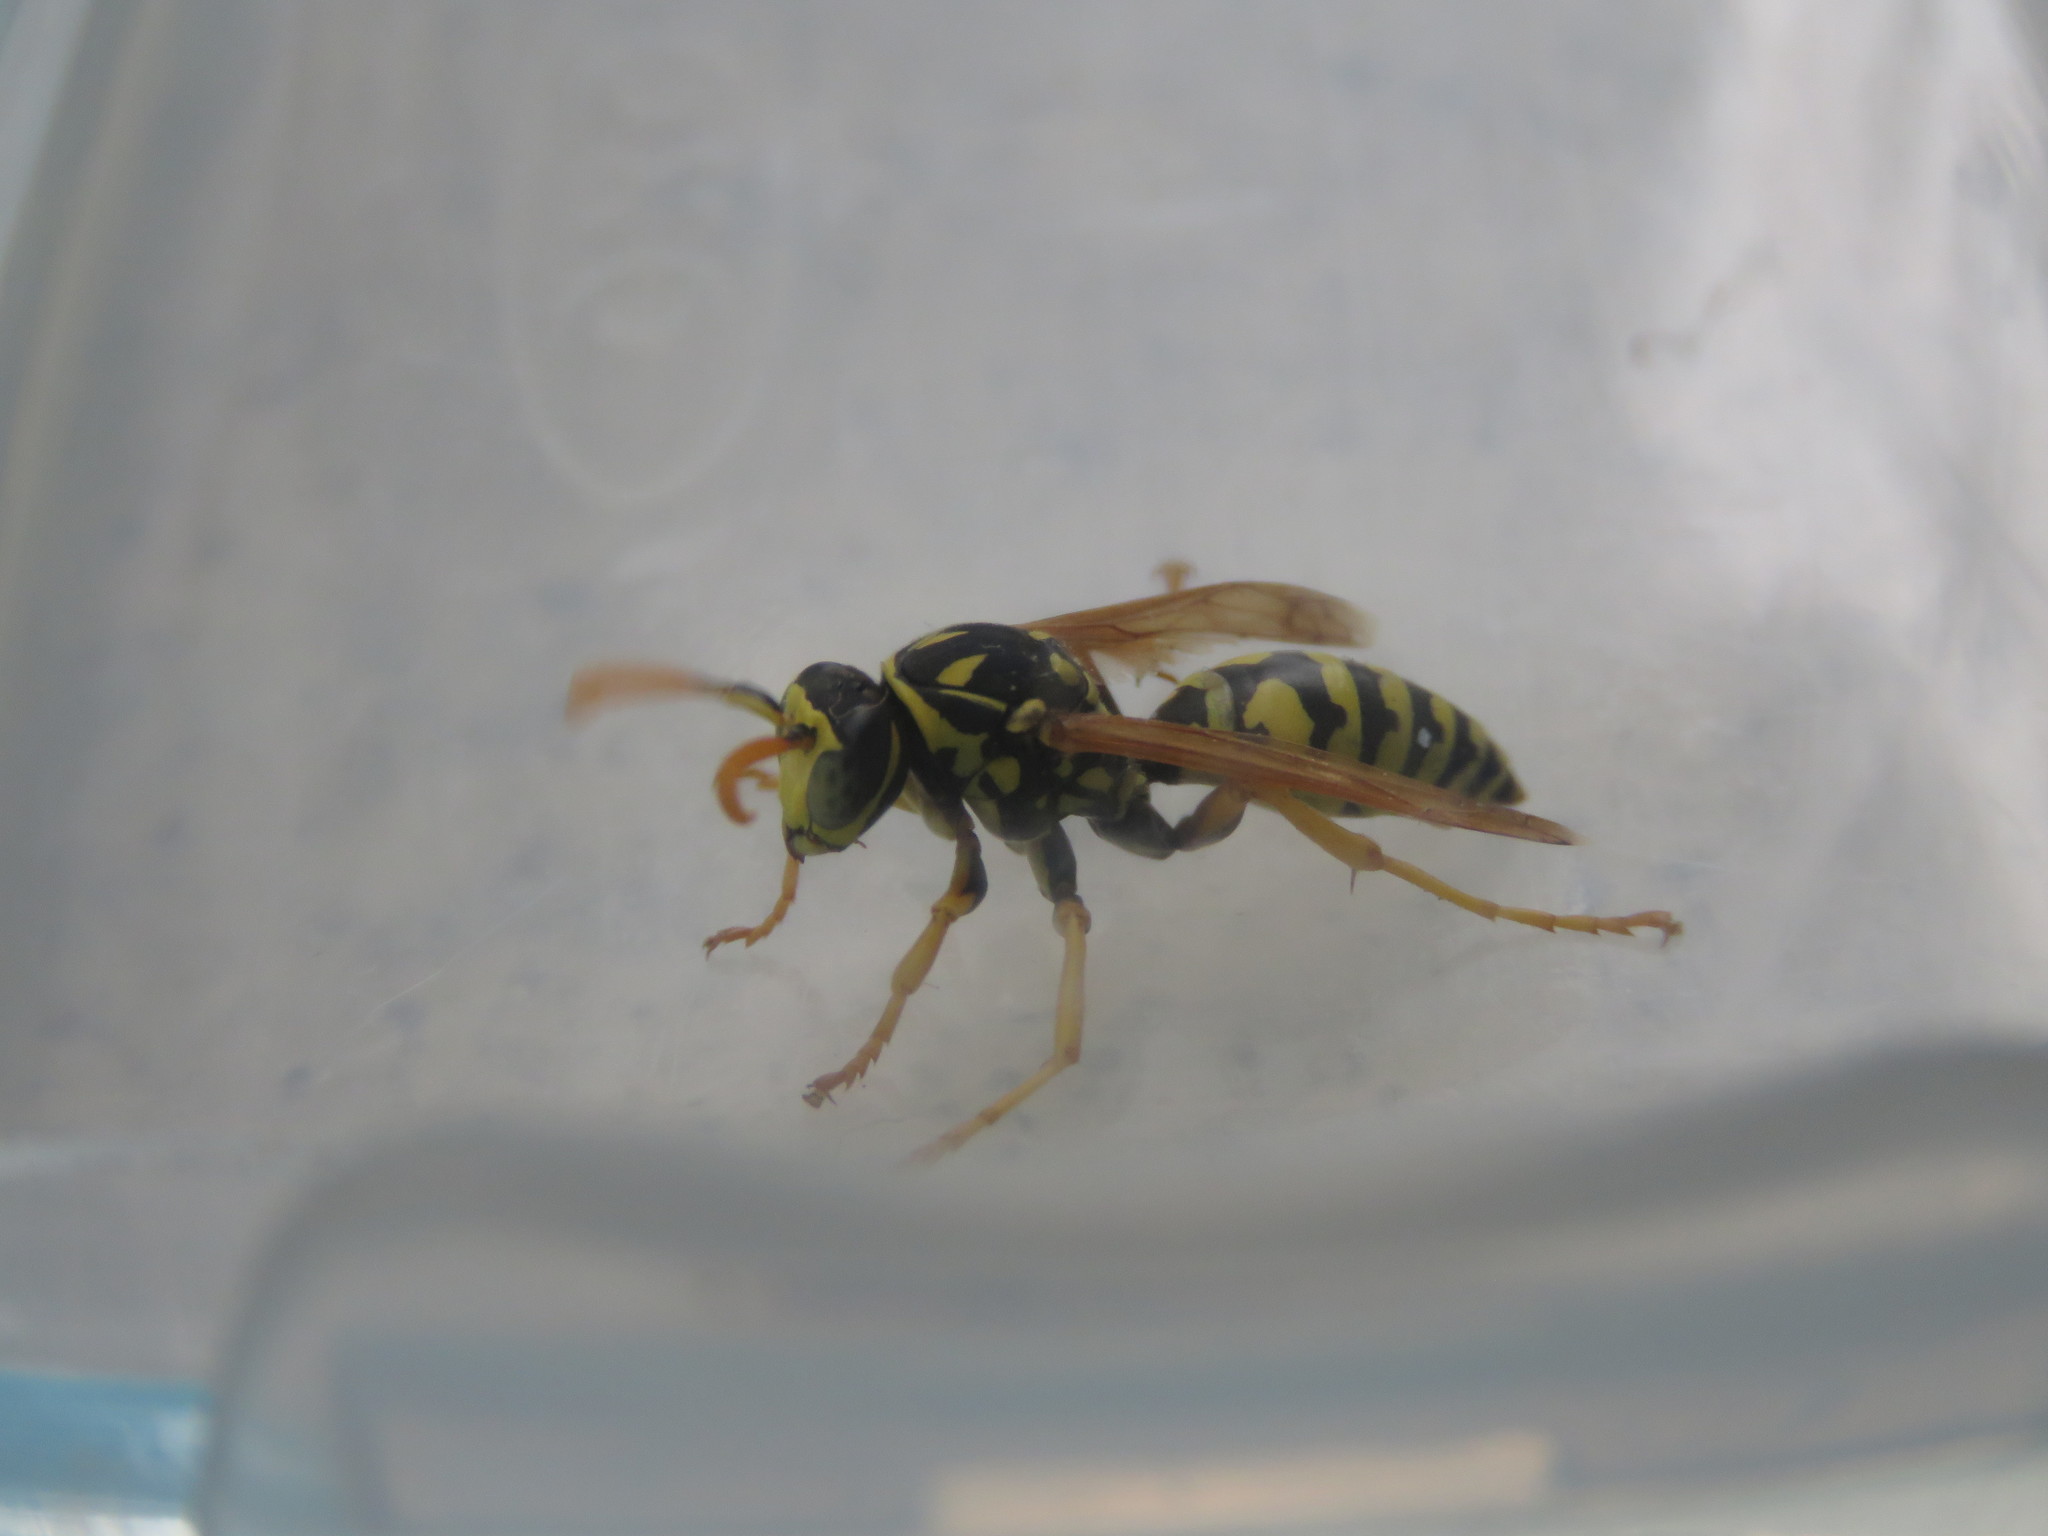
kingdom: Animalia
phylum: Arthropoda
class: Insecta
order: Hymenoptera
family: Eumenidae
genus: Polistes
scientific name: Polistes dominula
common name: Paper wasp
